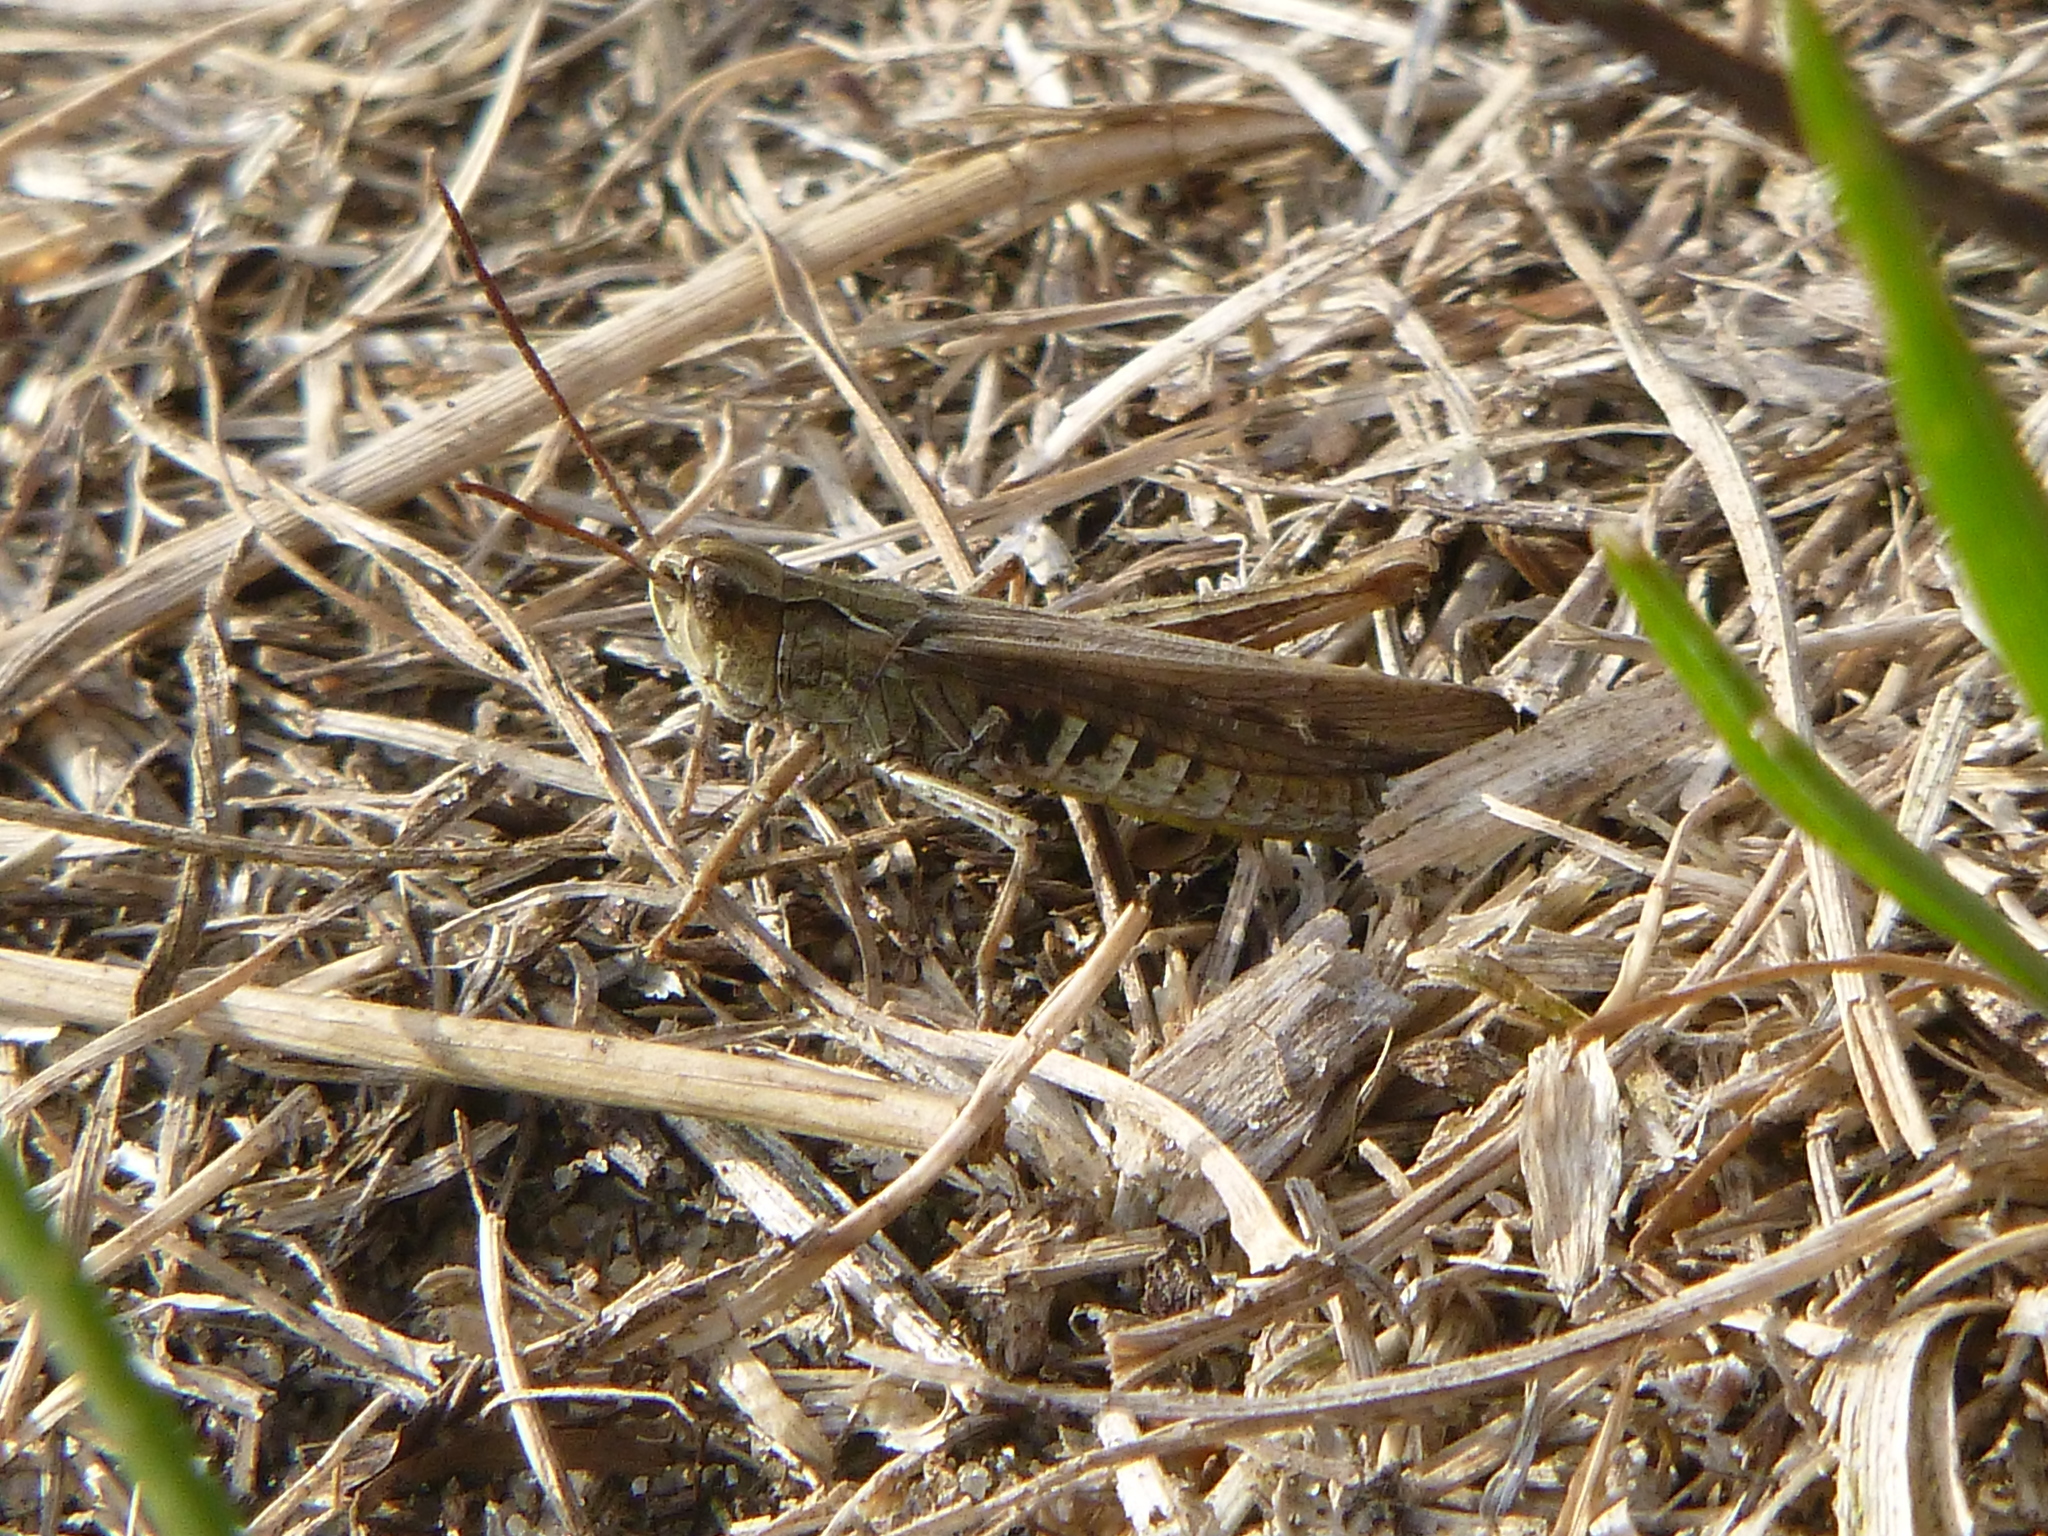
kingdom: Animalia
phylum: Arthropoda
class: Insecta
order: Orthoptera
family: Acrididae
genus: Chorthippus
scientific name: Chorthippus brunneus
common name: Field grasshopper
